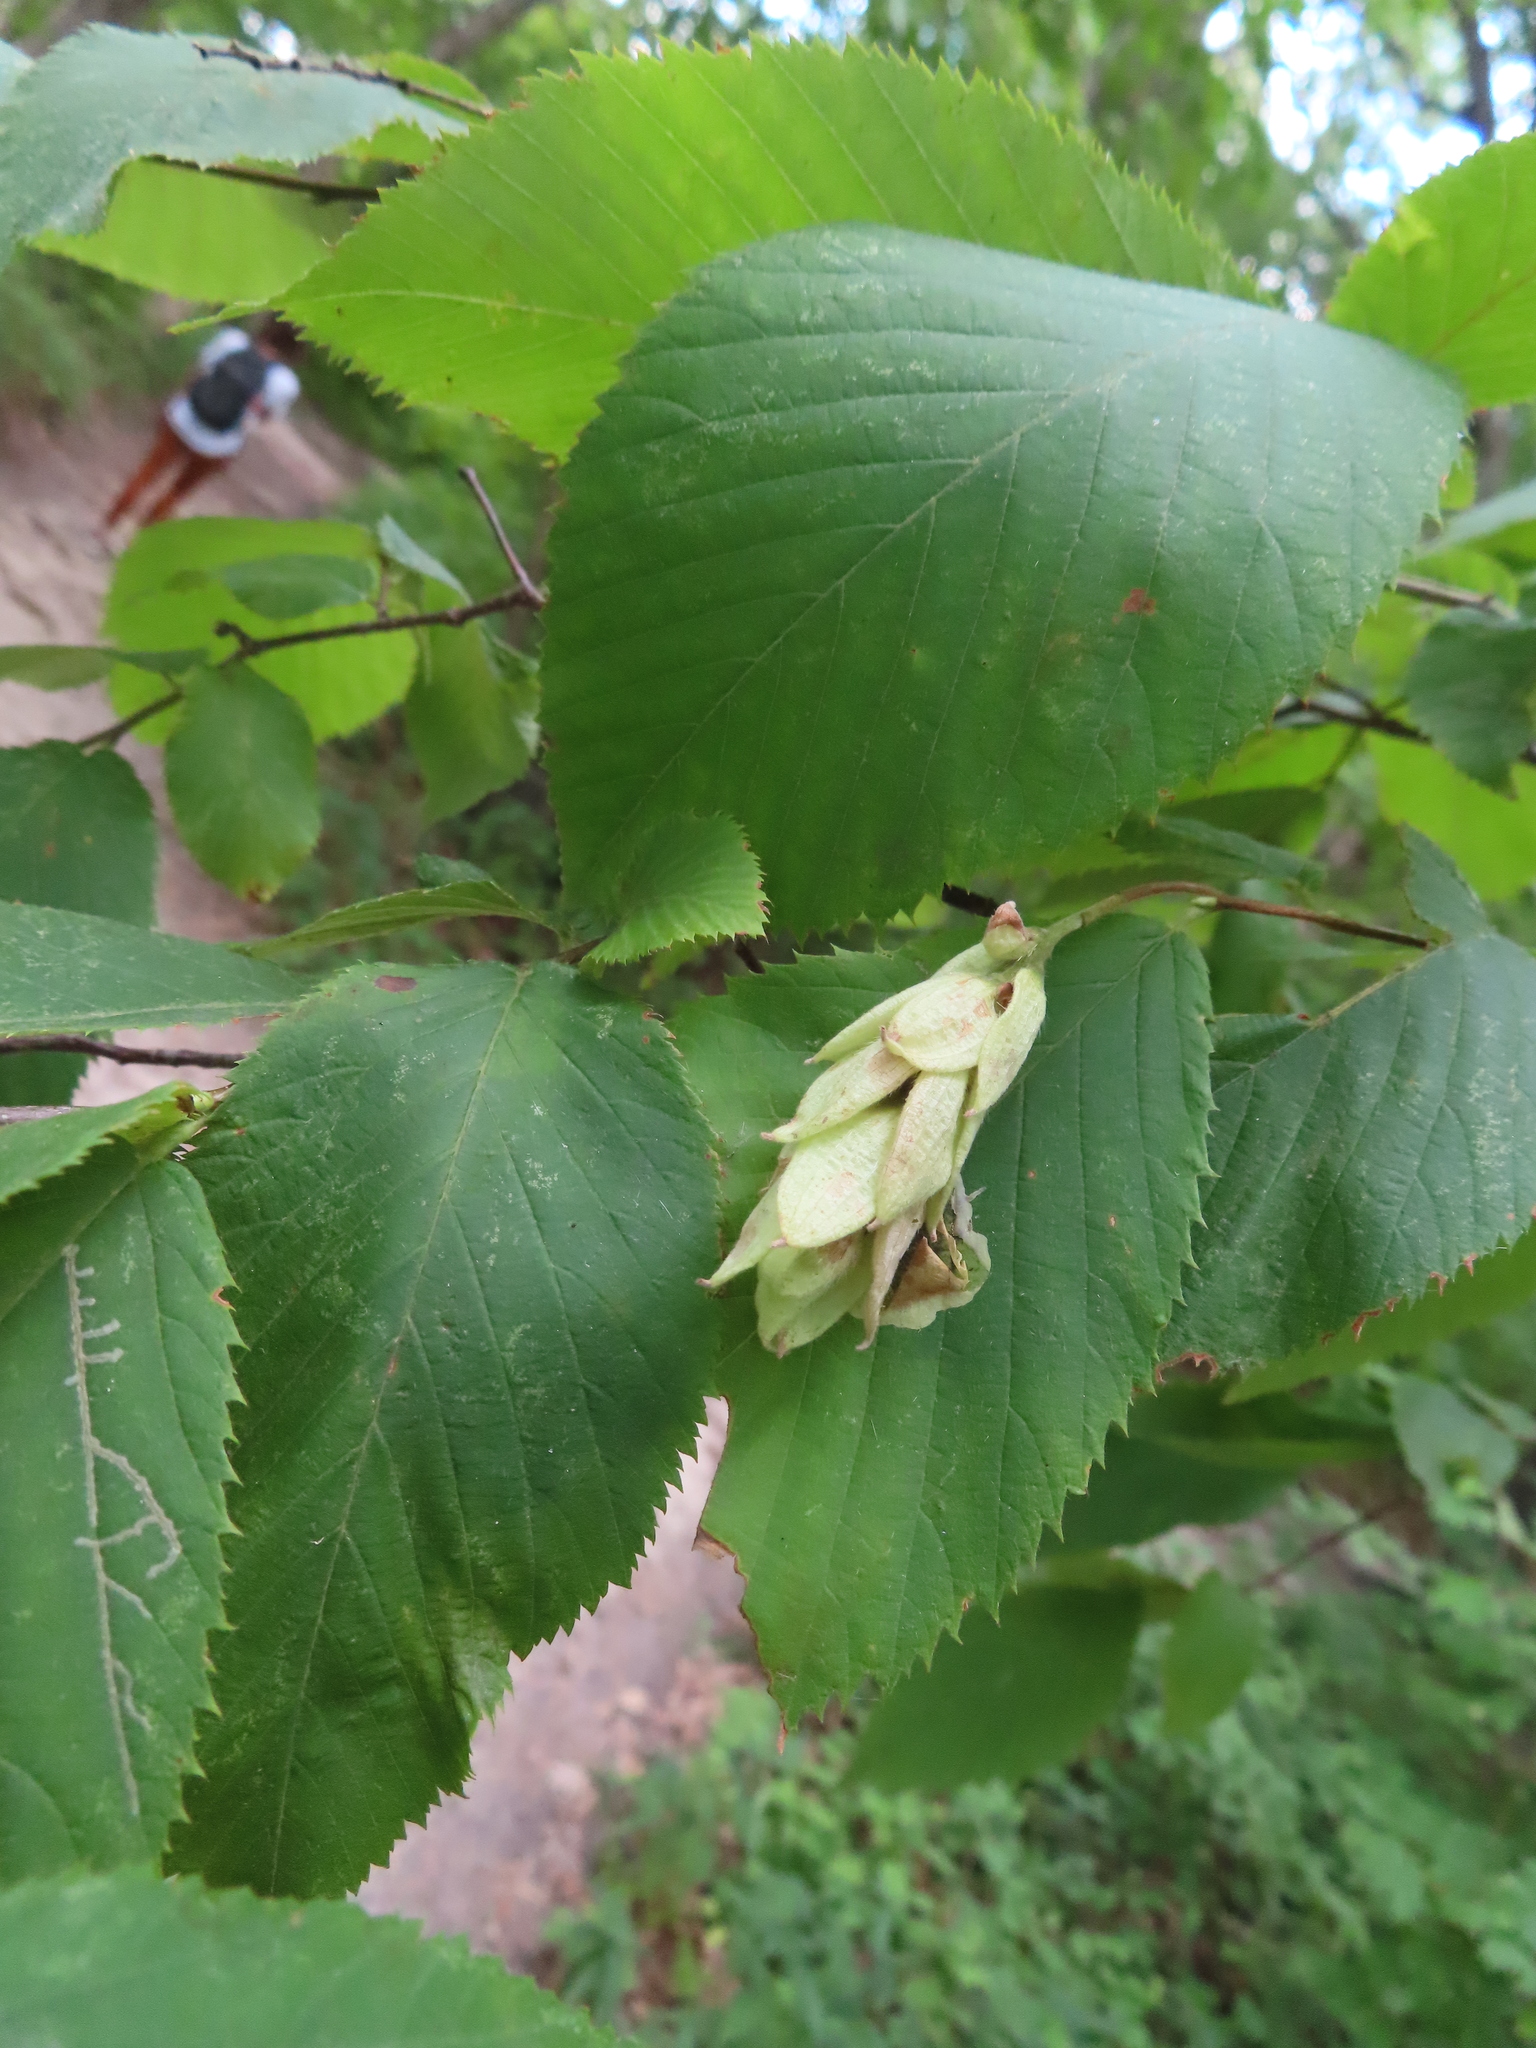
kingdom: Animalia
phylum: Arthropoda
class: Insecta
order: Lepidoptera
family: Gracillariidae
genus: Caloptilia
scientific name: Caloptilia ostryaeella
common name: Ironwood leafcone moth
